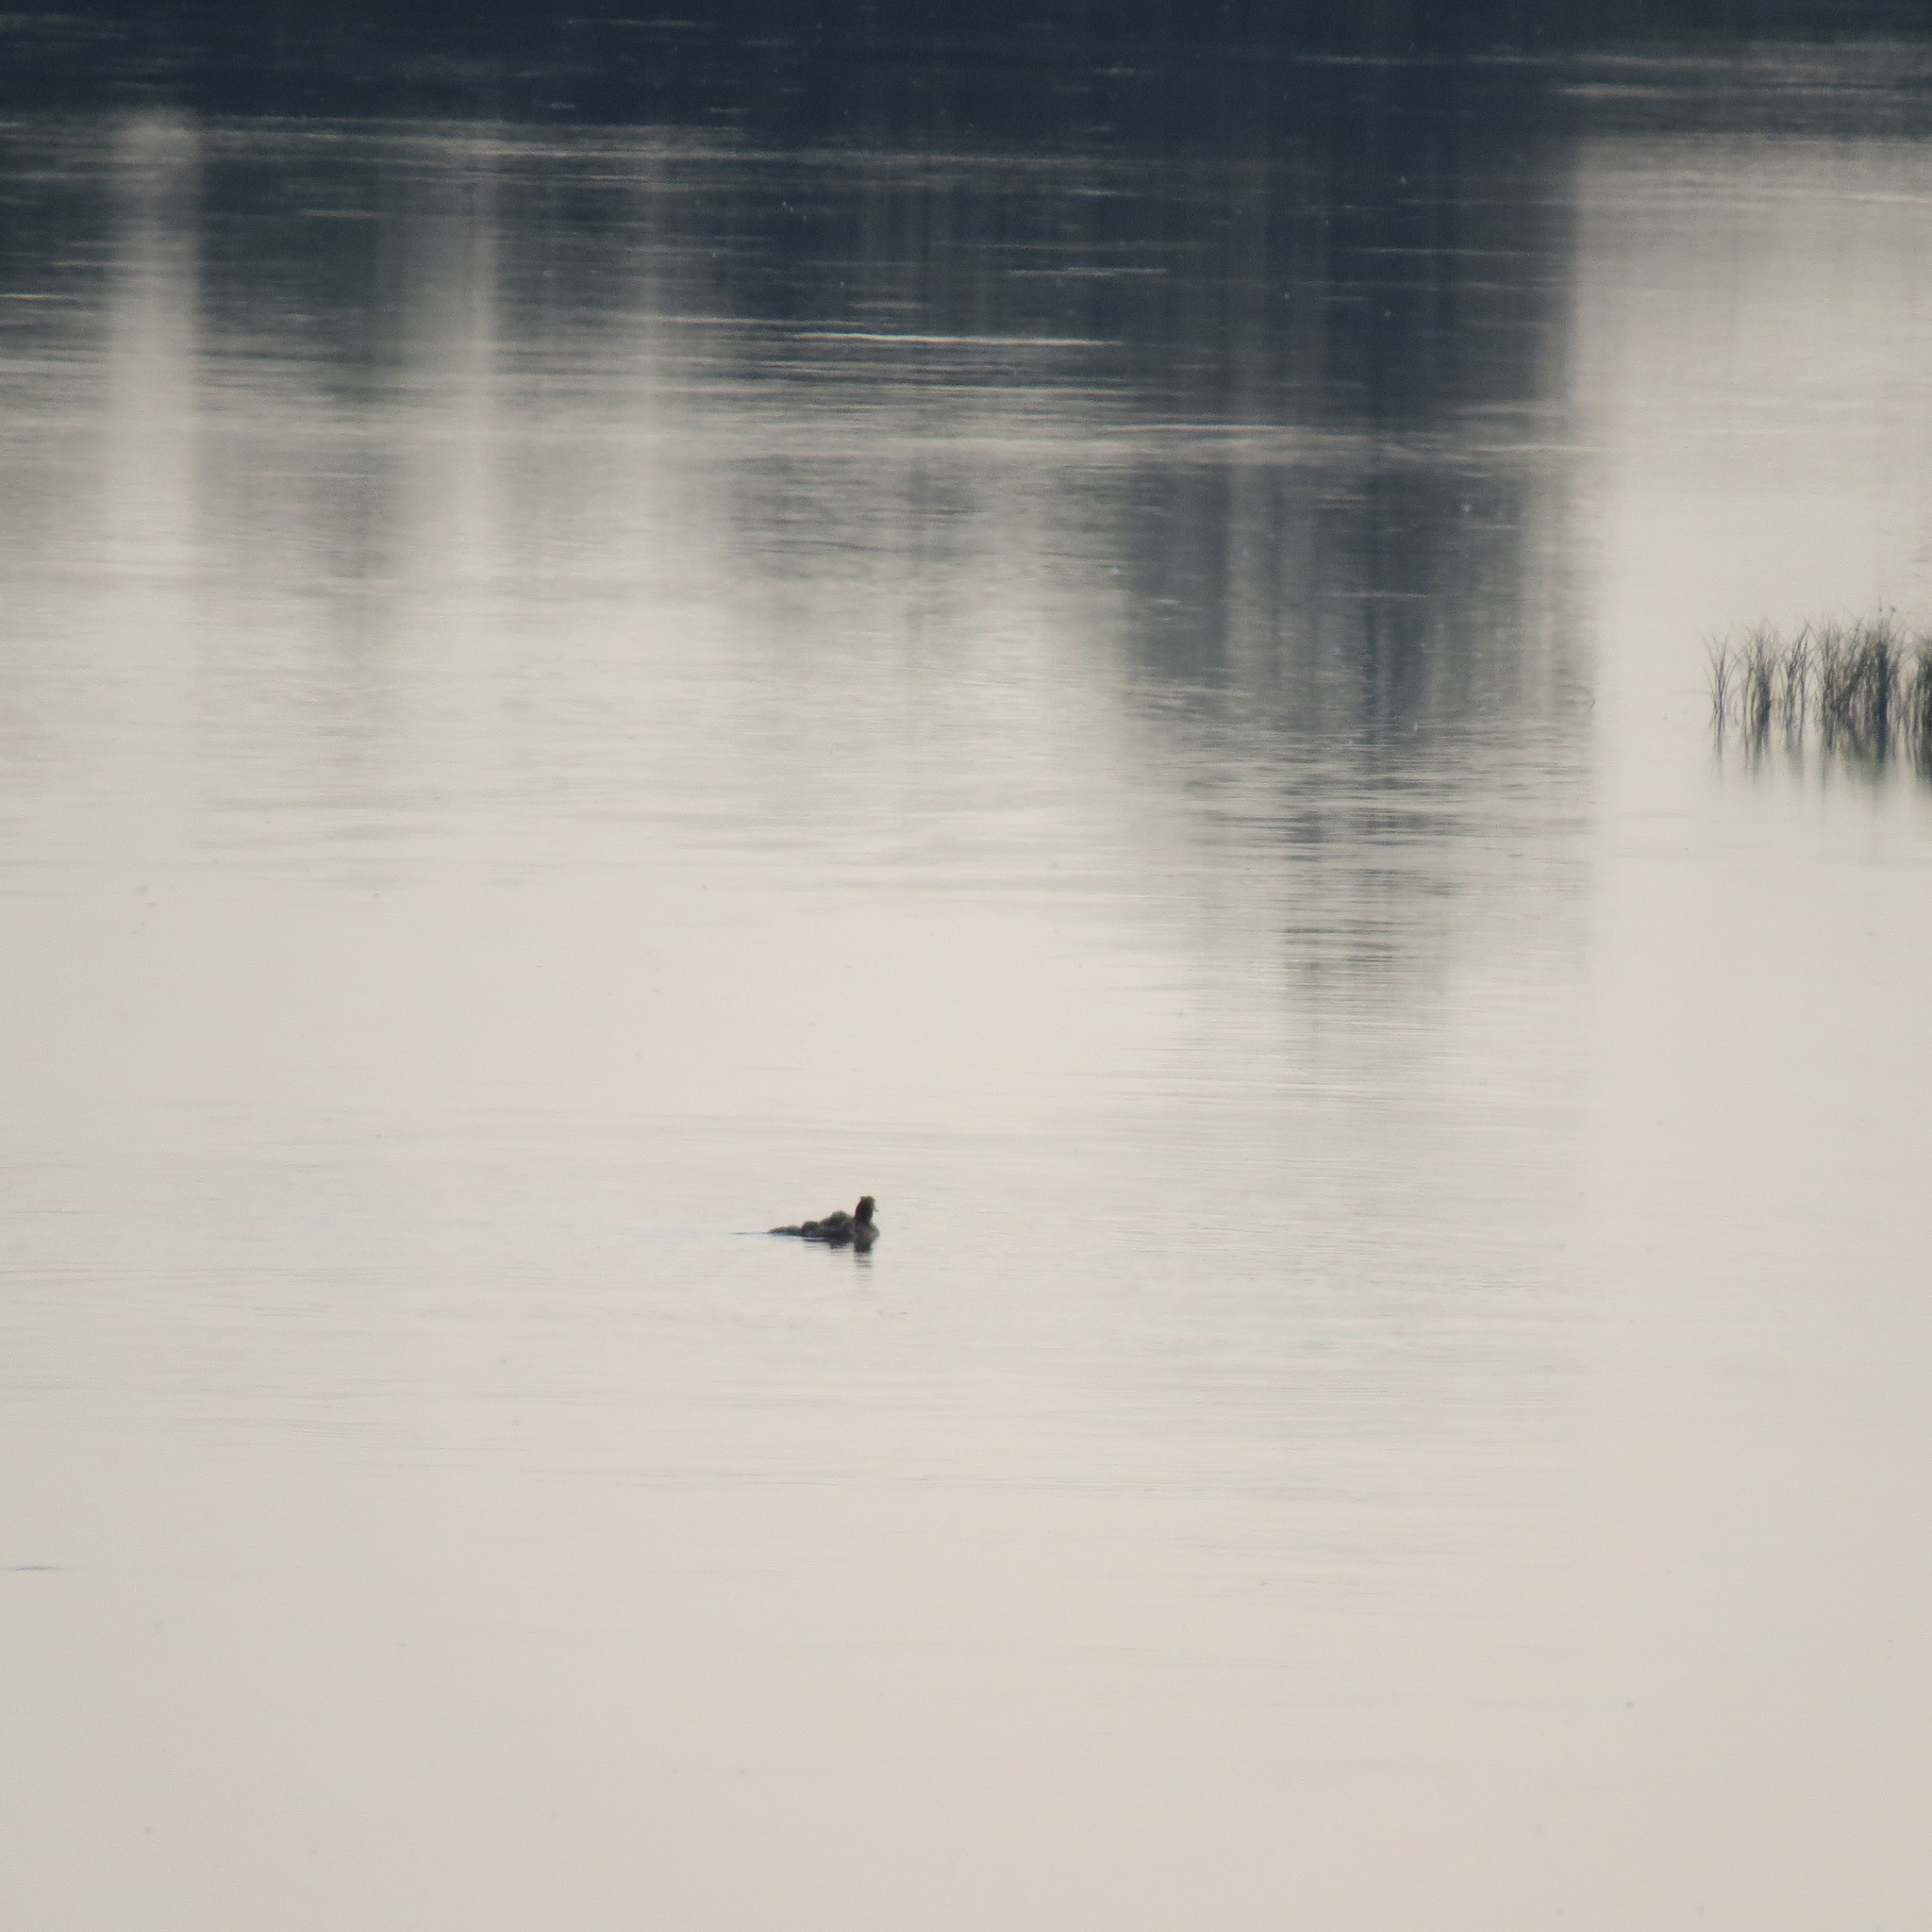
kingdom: Animalia
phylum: Chordata
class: Aves
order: Podicipediformes
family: Podicipedidae
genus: Podiceps
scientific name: Podiceps cristatus
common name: Great crested grebe
